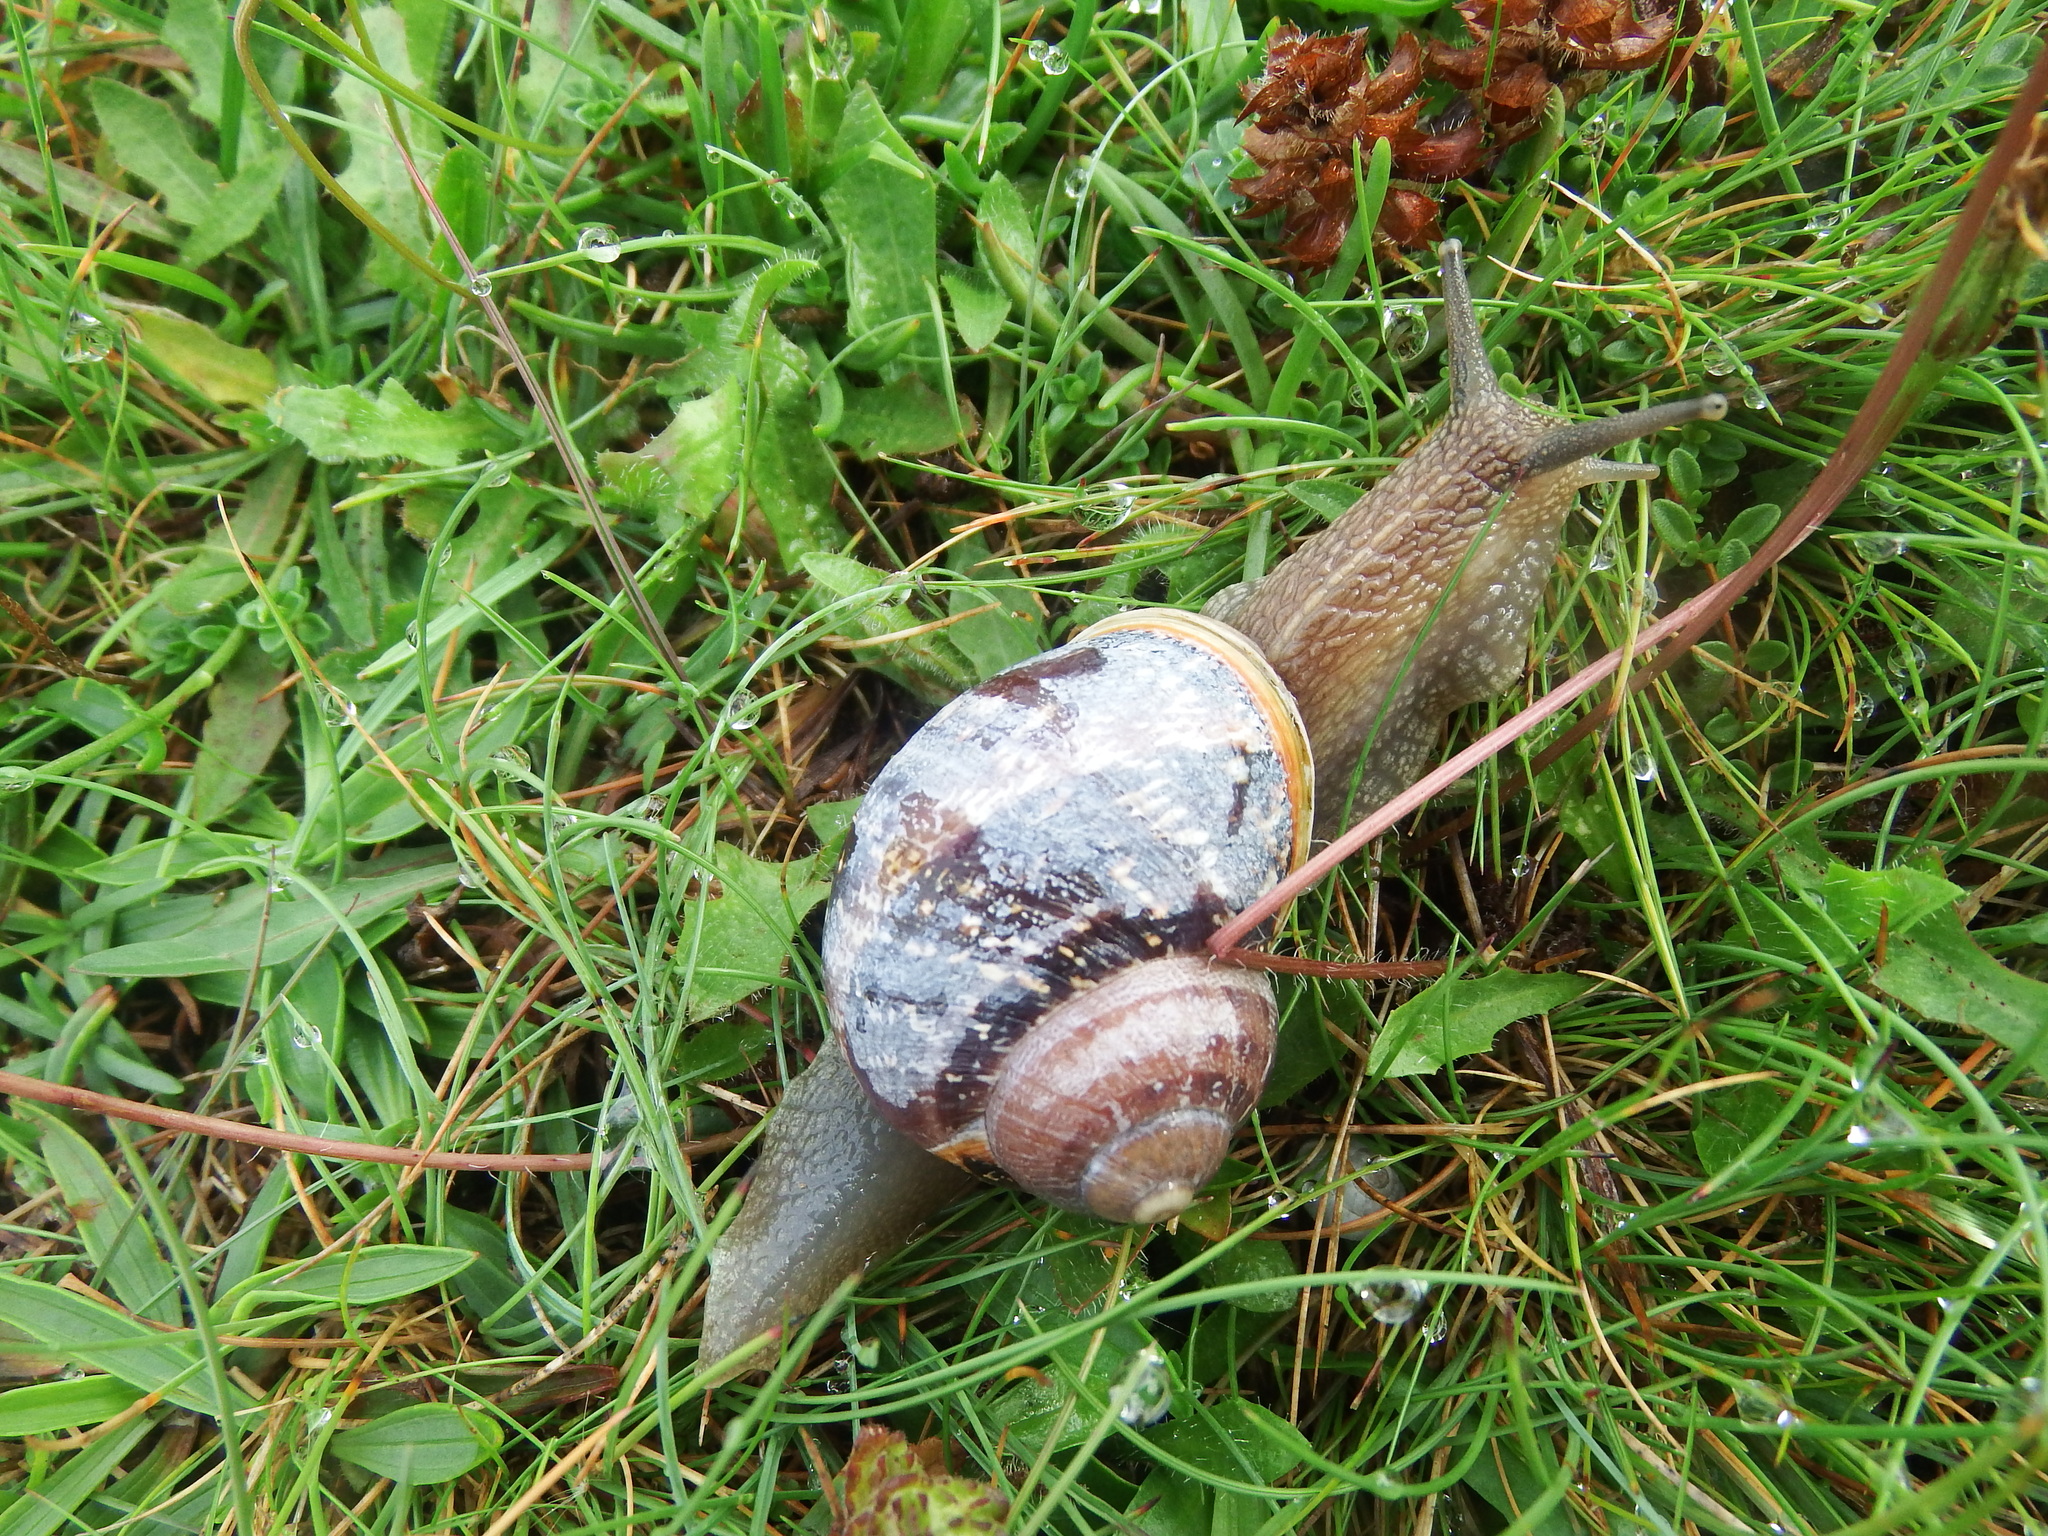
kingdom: Animalia
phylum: Mollusca
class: Gastropoda
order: Stylommatophora
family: Helicidae
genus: Cornu
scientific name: Cornu aspersum
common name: Brown garden snail
